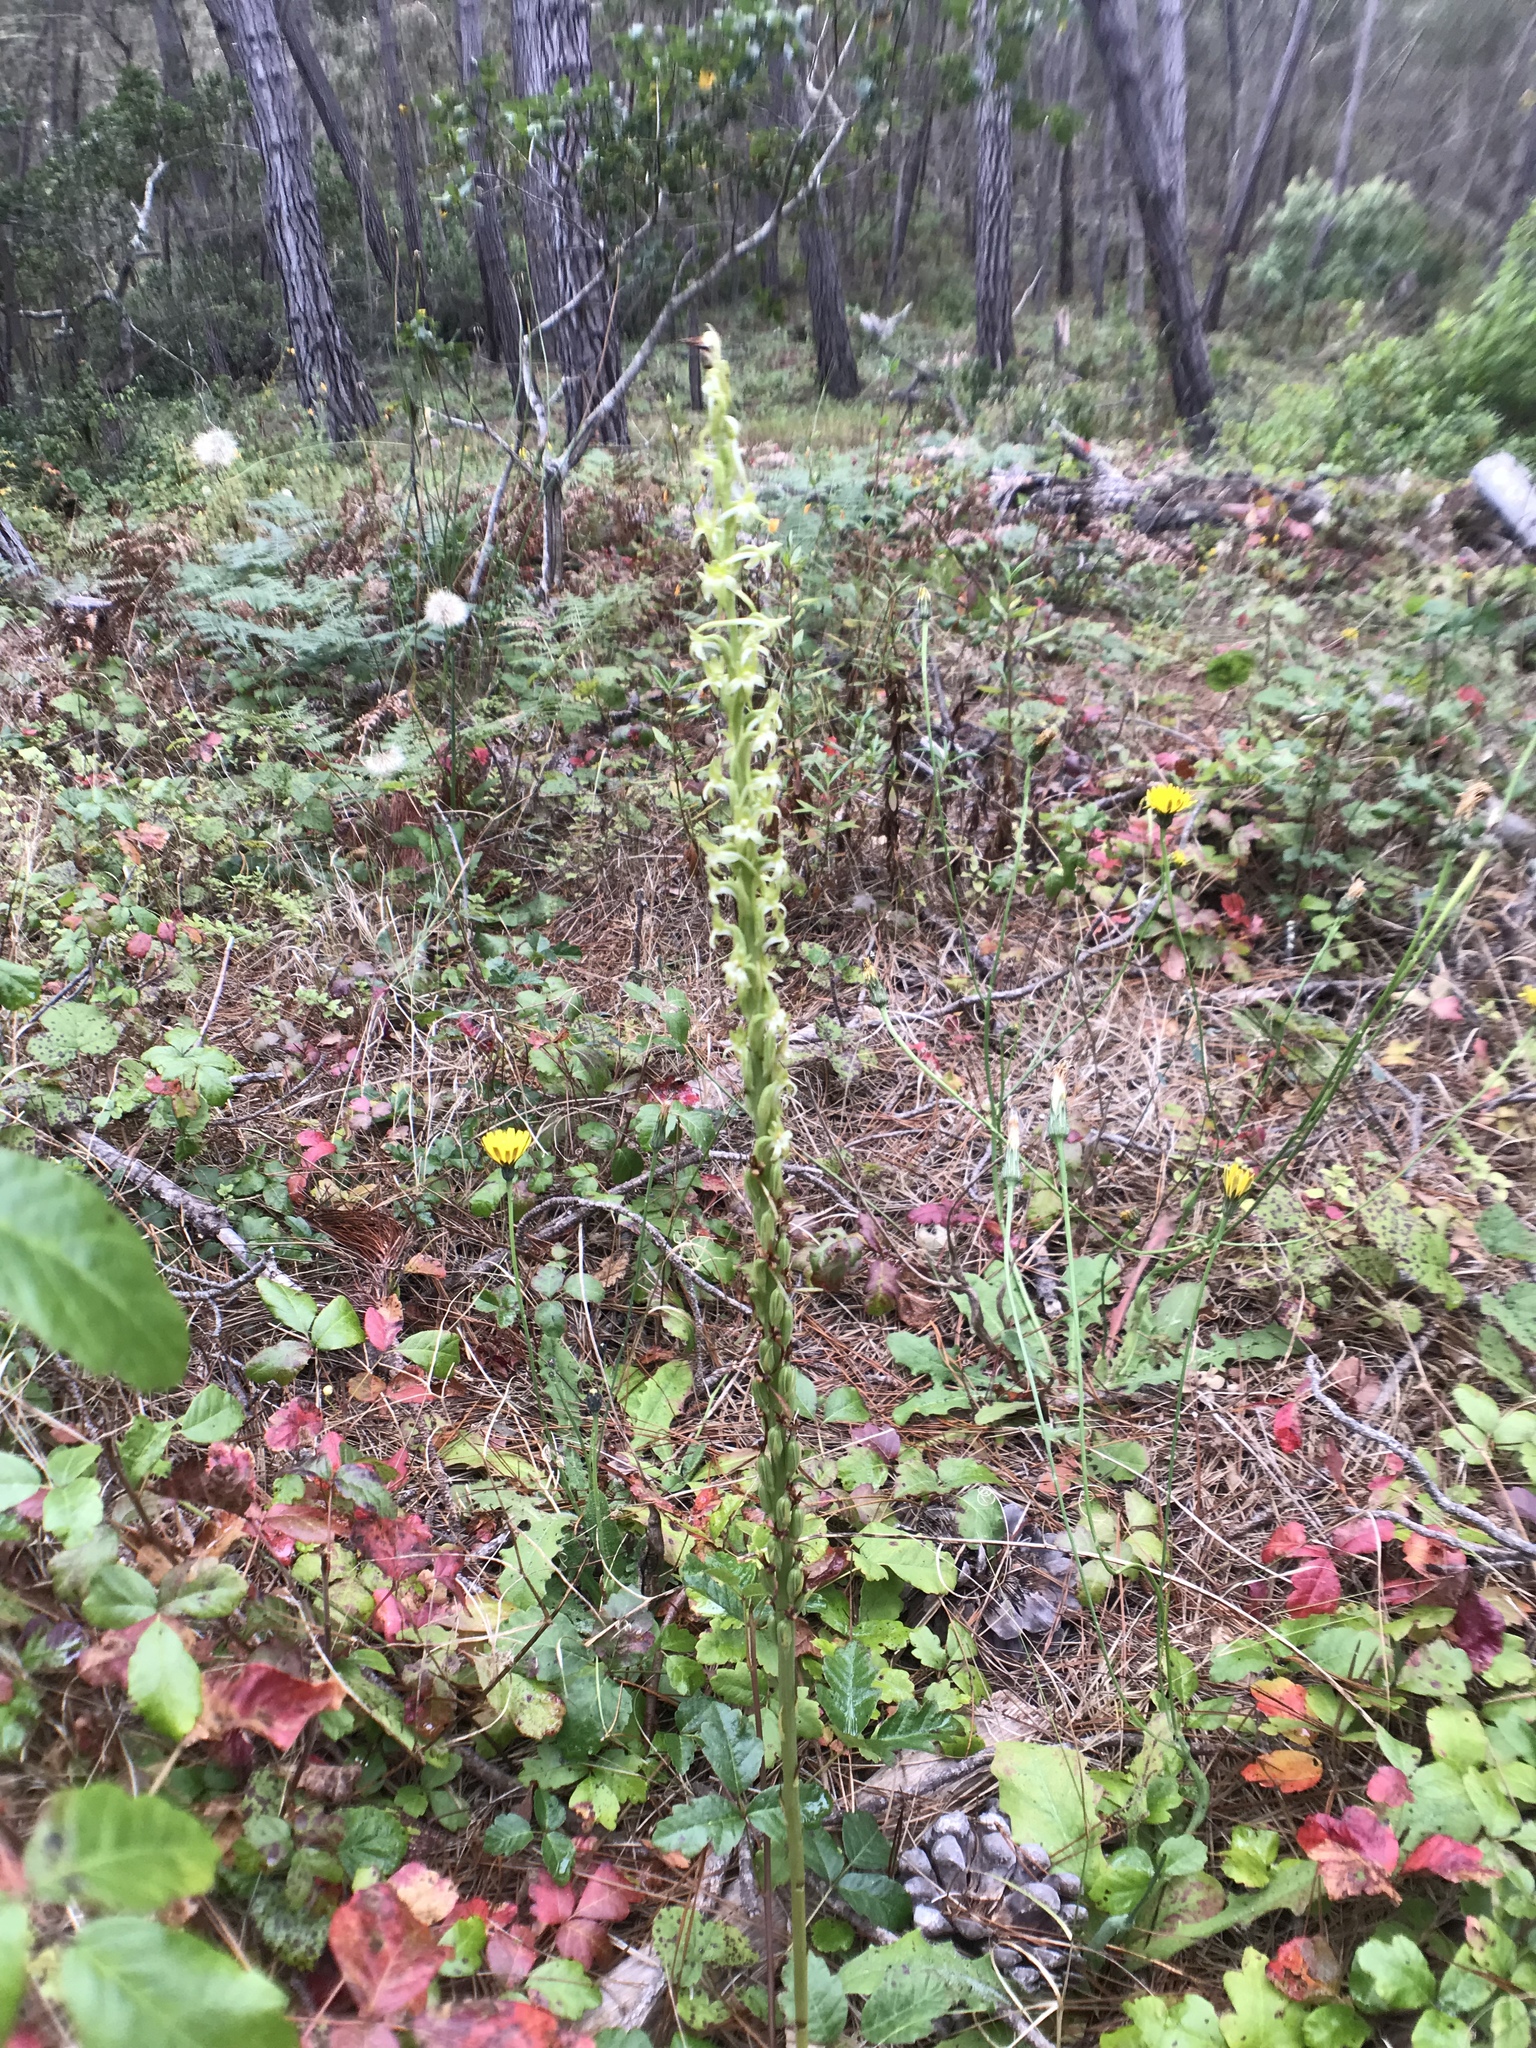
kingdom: Plantae
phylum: Tracheophyta
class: Liliopsida
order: Asparagales
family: Orchidaceae
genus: Platanthera
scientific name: Platanthera elongata
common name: Dense-flowered rein orchid
